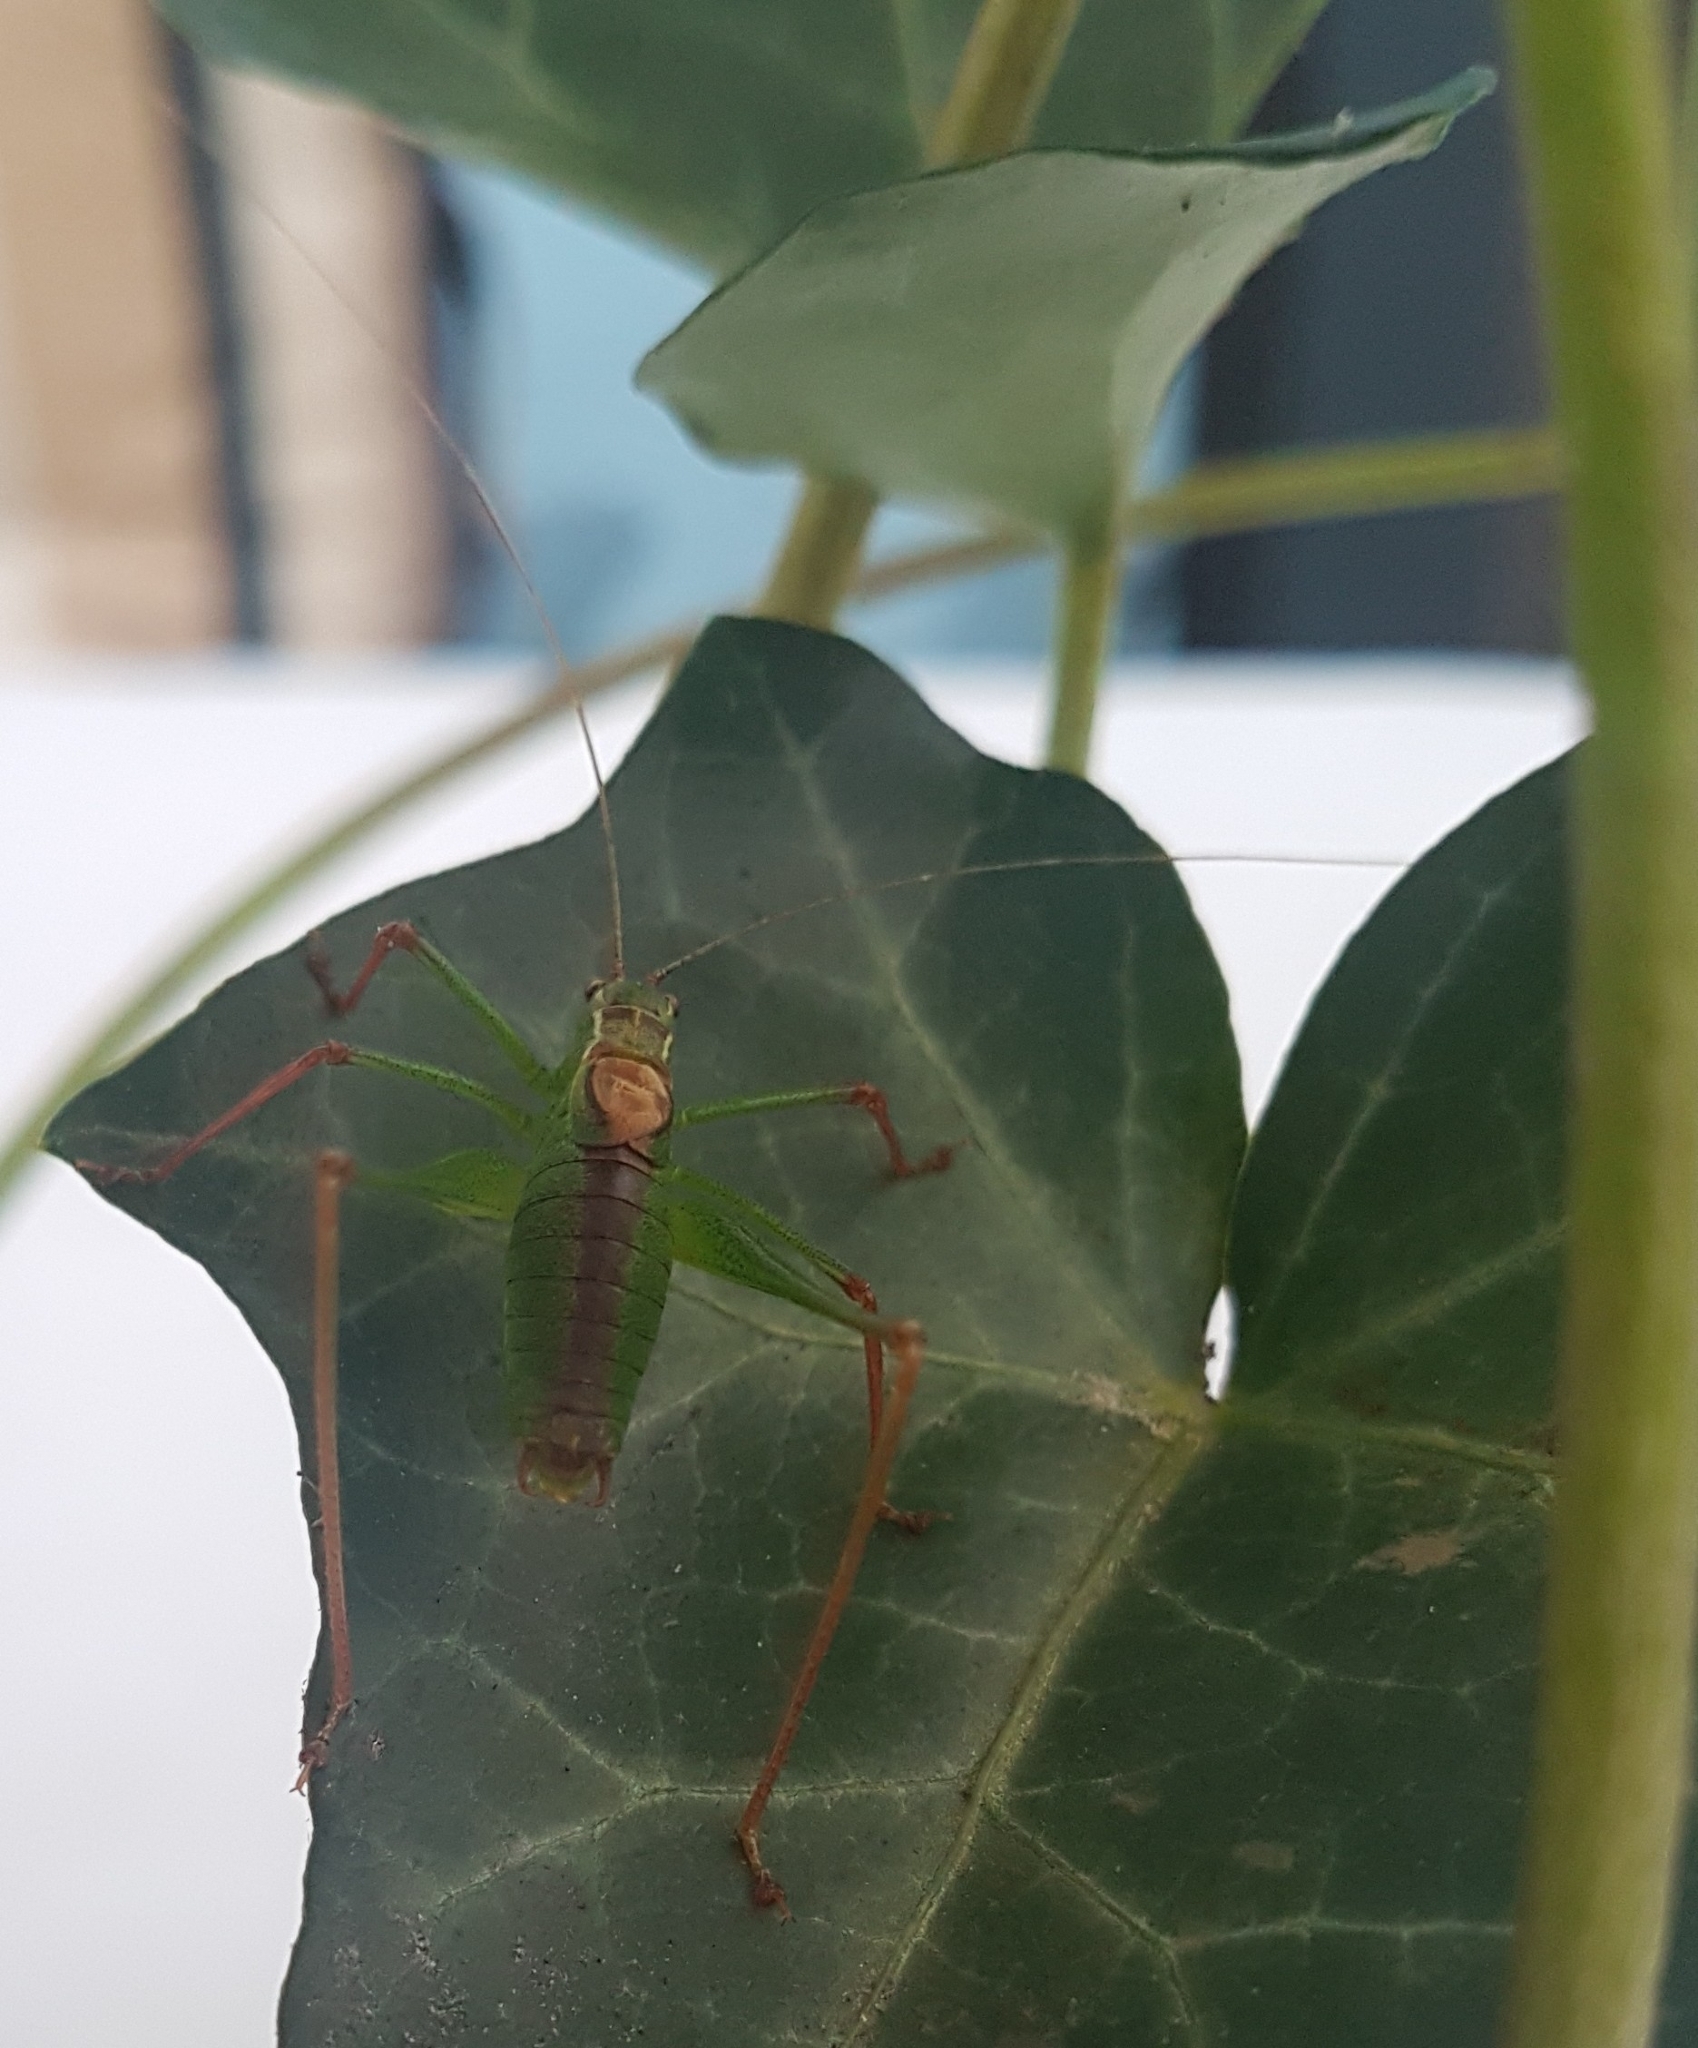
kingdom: Animalia
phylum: Arthropoda
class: Insecta
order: Orthoptera
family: Tettigoniidae
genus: Leptophyes
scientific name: Leptophyes punctatissima
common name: Speckled bush-cricket
